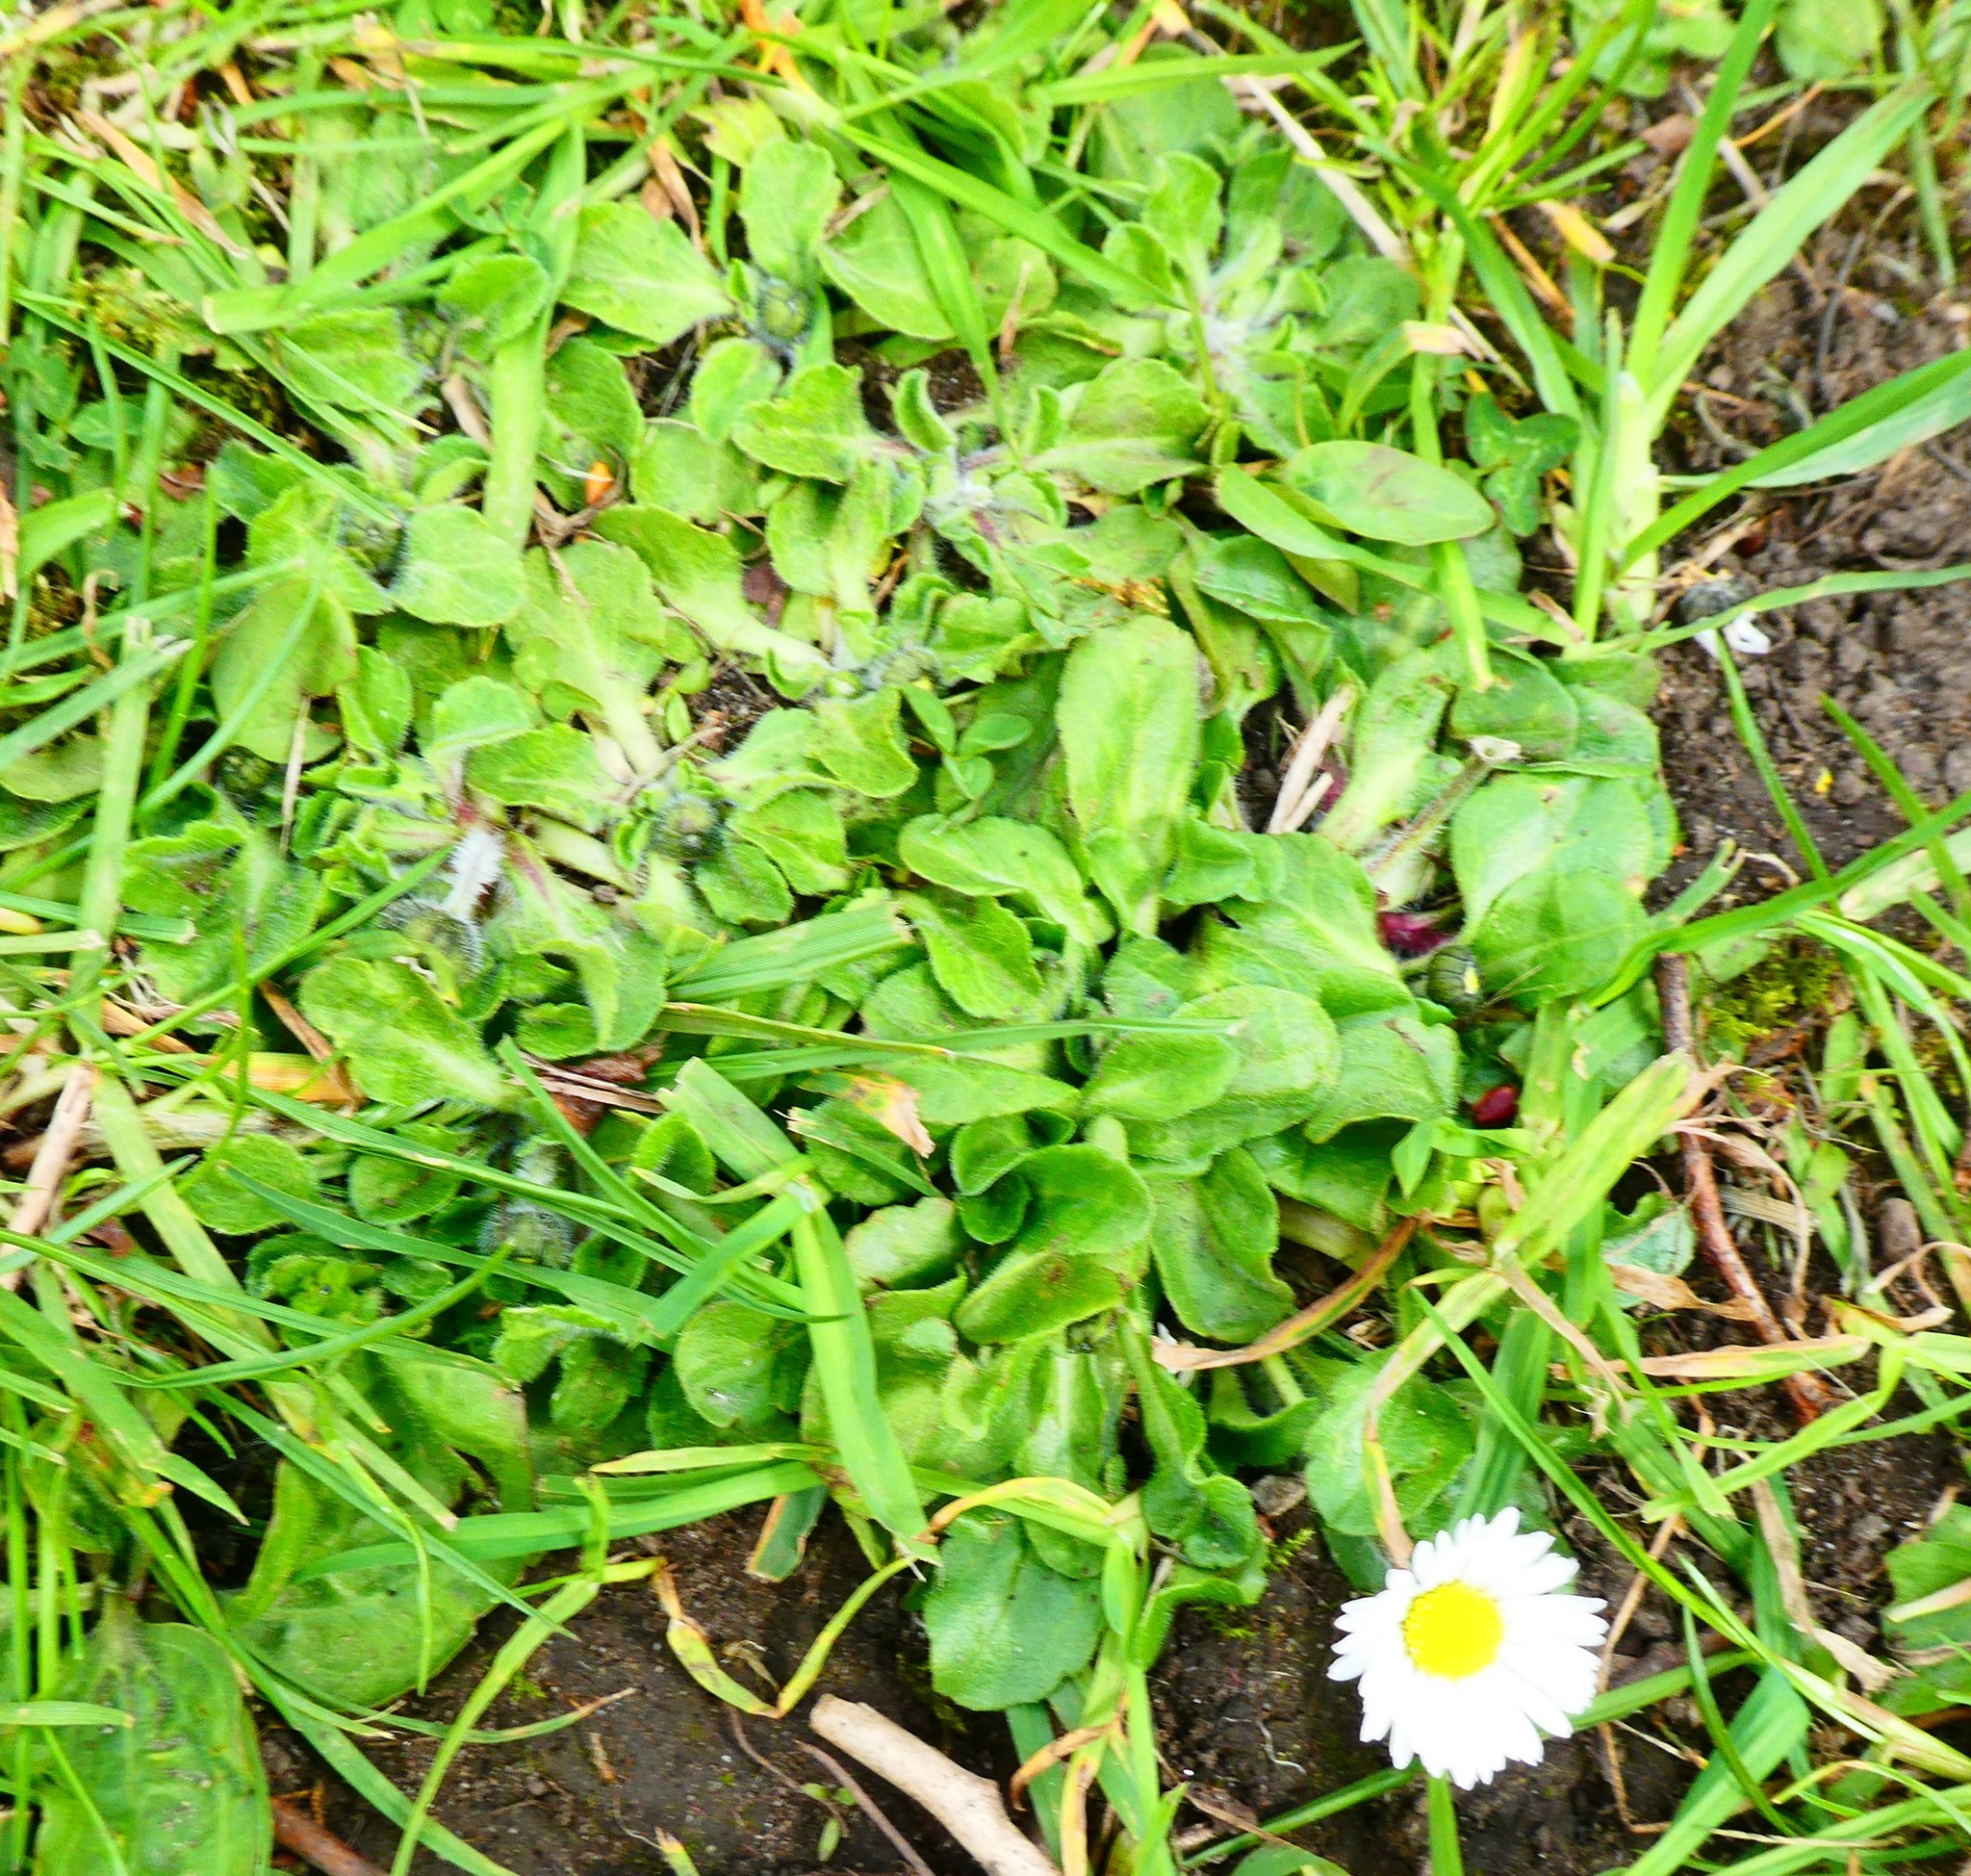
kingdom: Plantae
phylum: Tracheophyta
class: Magnoliopsida
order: Asterales
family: Asteraceae
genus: Bellis
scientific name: Bellis perennis
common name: Lawndaisy
